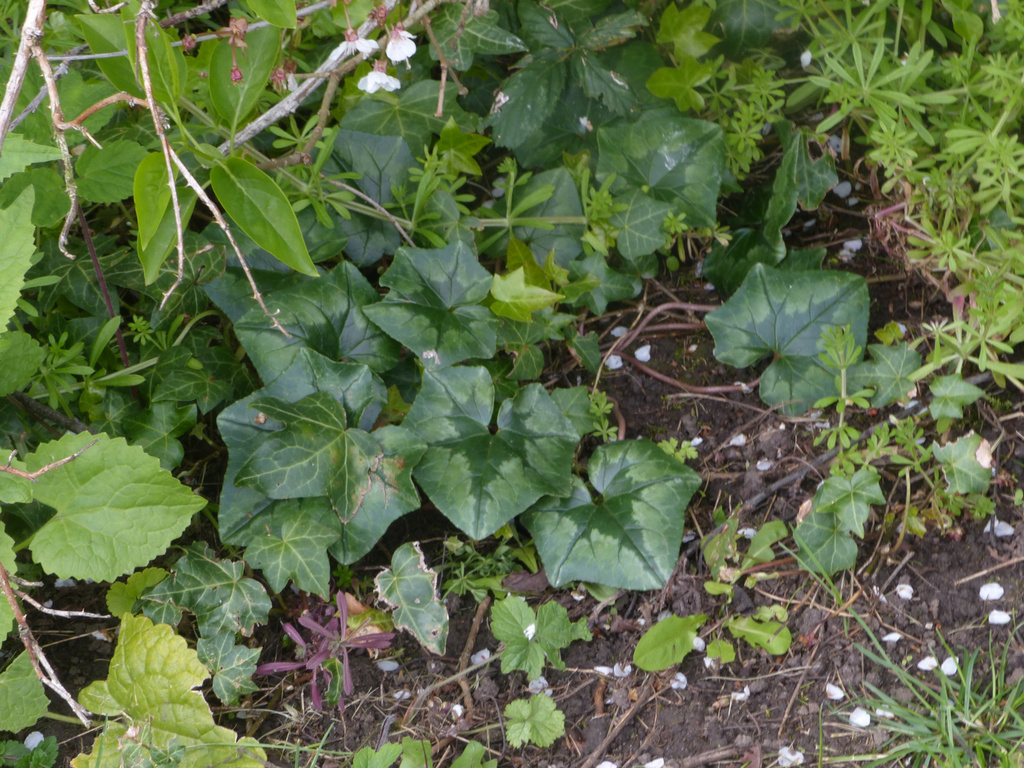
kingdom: Plantae
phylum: Tracheophyta
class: Magnoliopsida
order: Ericales
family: Primulaceae
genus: Cyclamen
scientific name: Cyclamen hederifolium
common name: Sowbread
